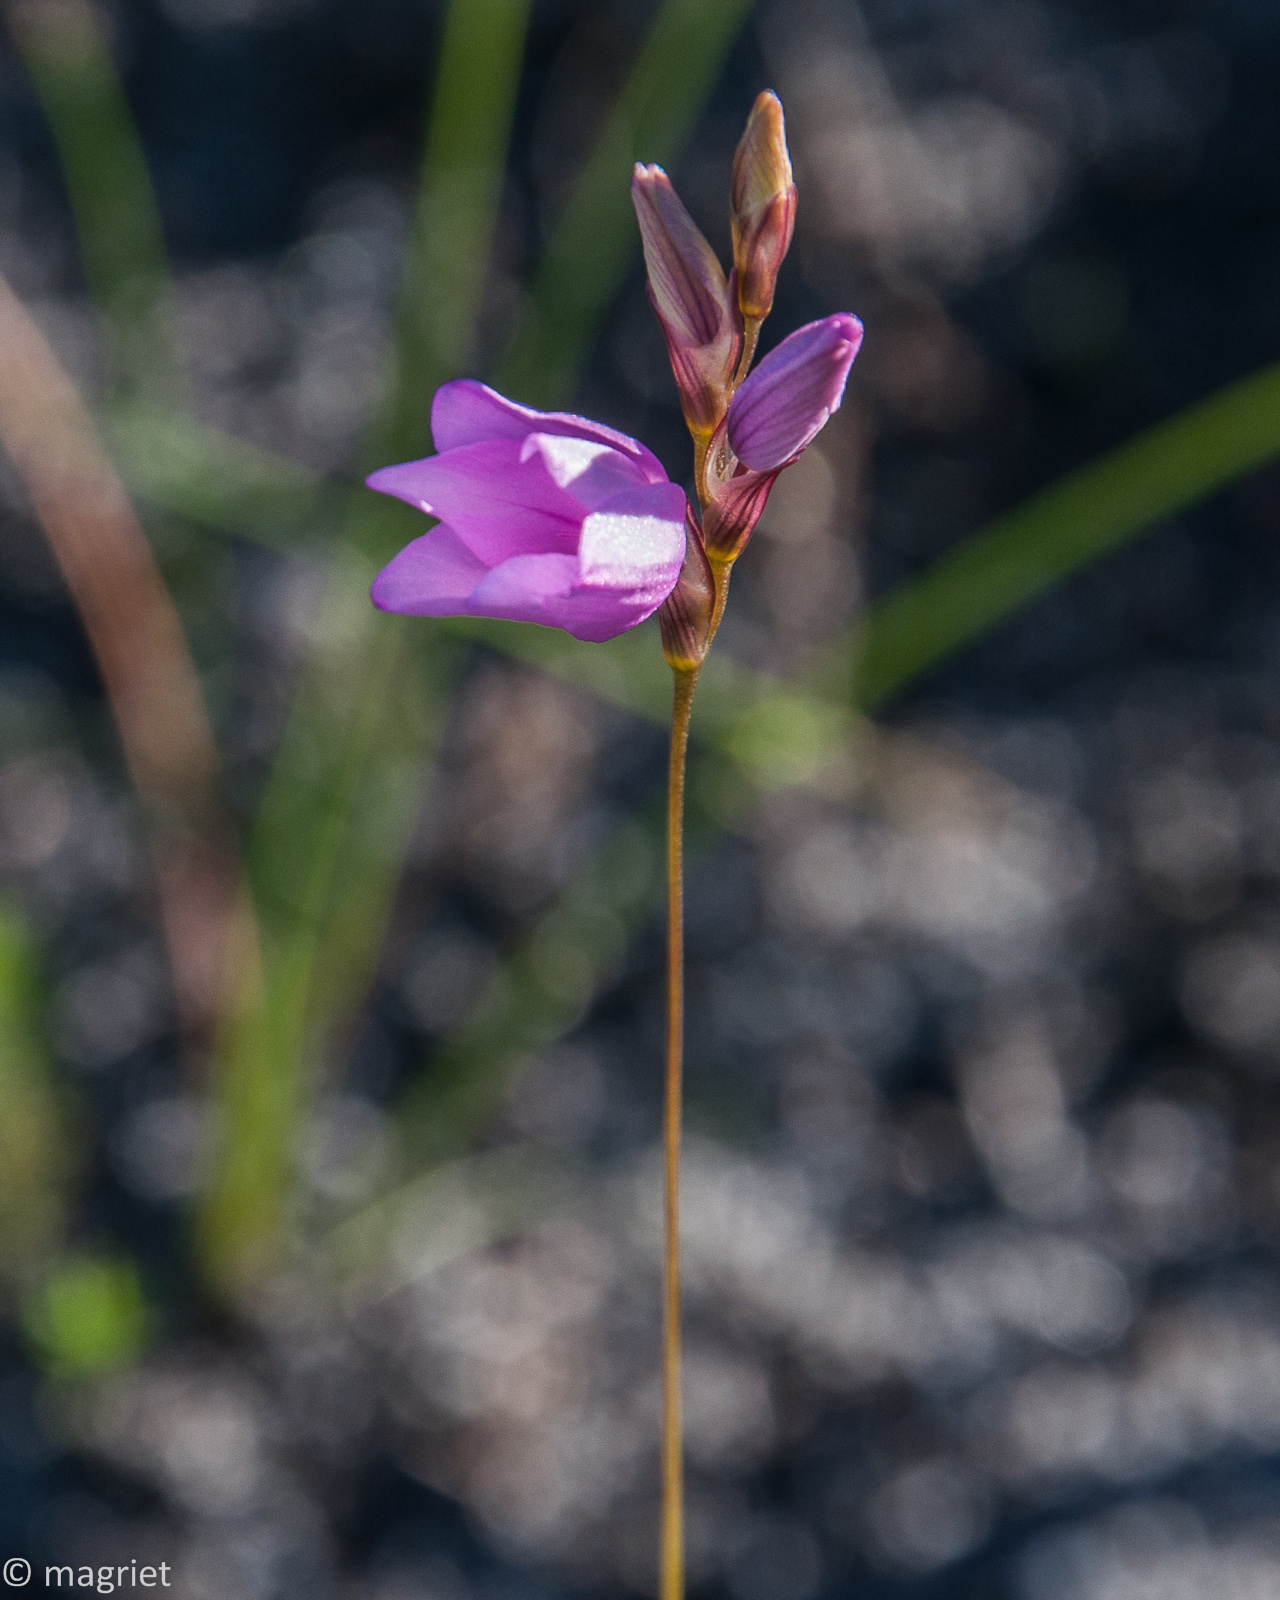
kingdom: Plantae
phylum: Tracheophyta
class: Liliopsida
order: Asparagales
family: Iridaceae
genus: Ixia
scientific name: Ixia micrandra
